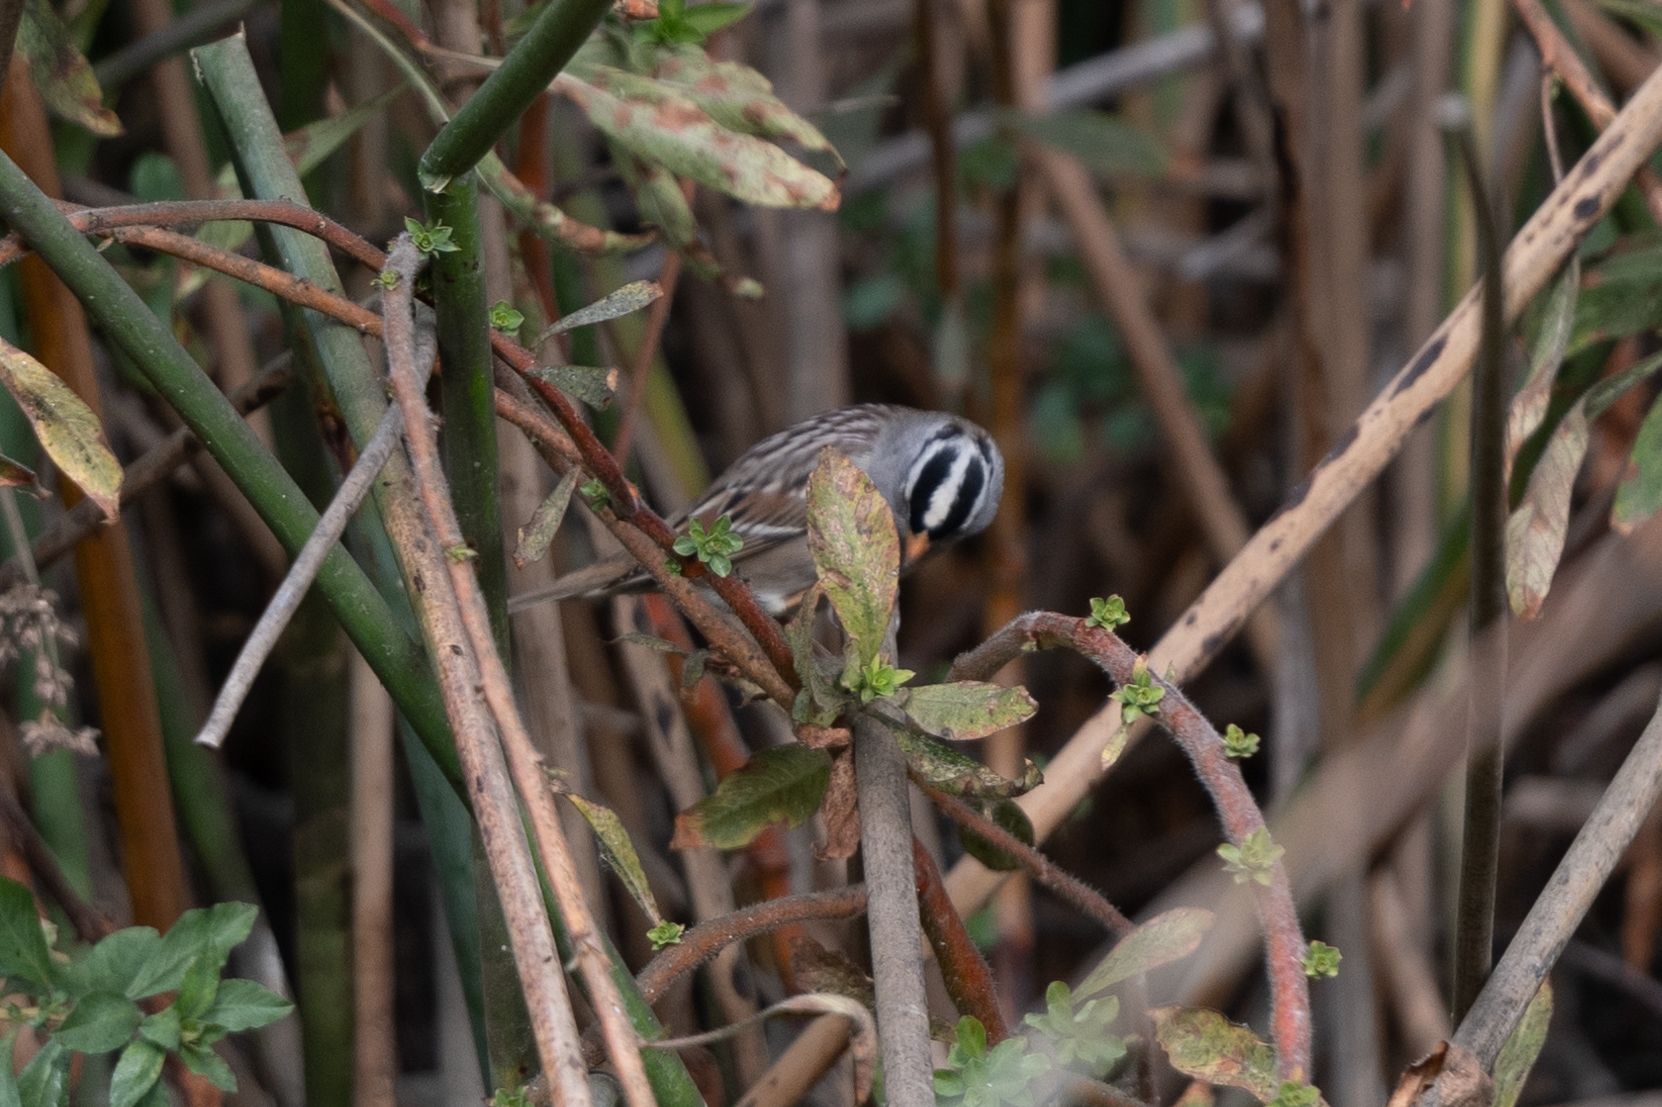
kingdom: Animalia
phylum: Chordata
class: Aves
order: Passeriformes
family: Passerellidae
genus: Zonotrichia
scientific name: Zonotrichia leucophrys
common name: White-crowned sparrow
